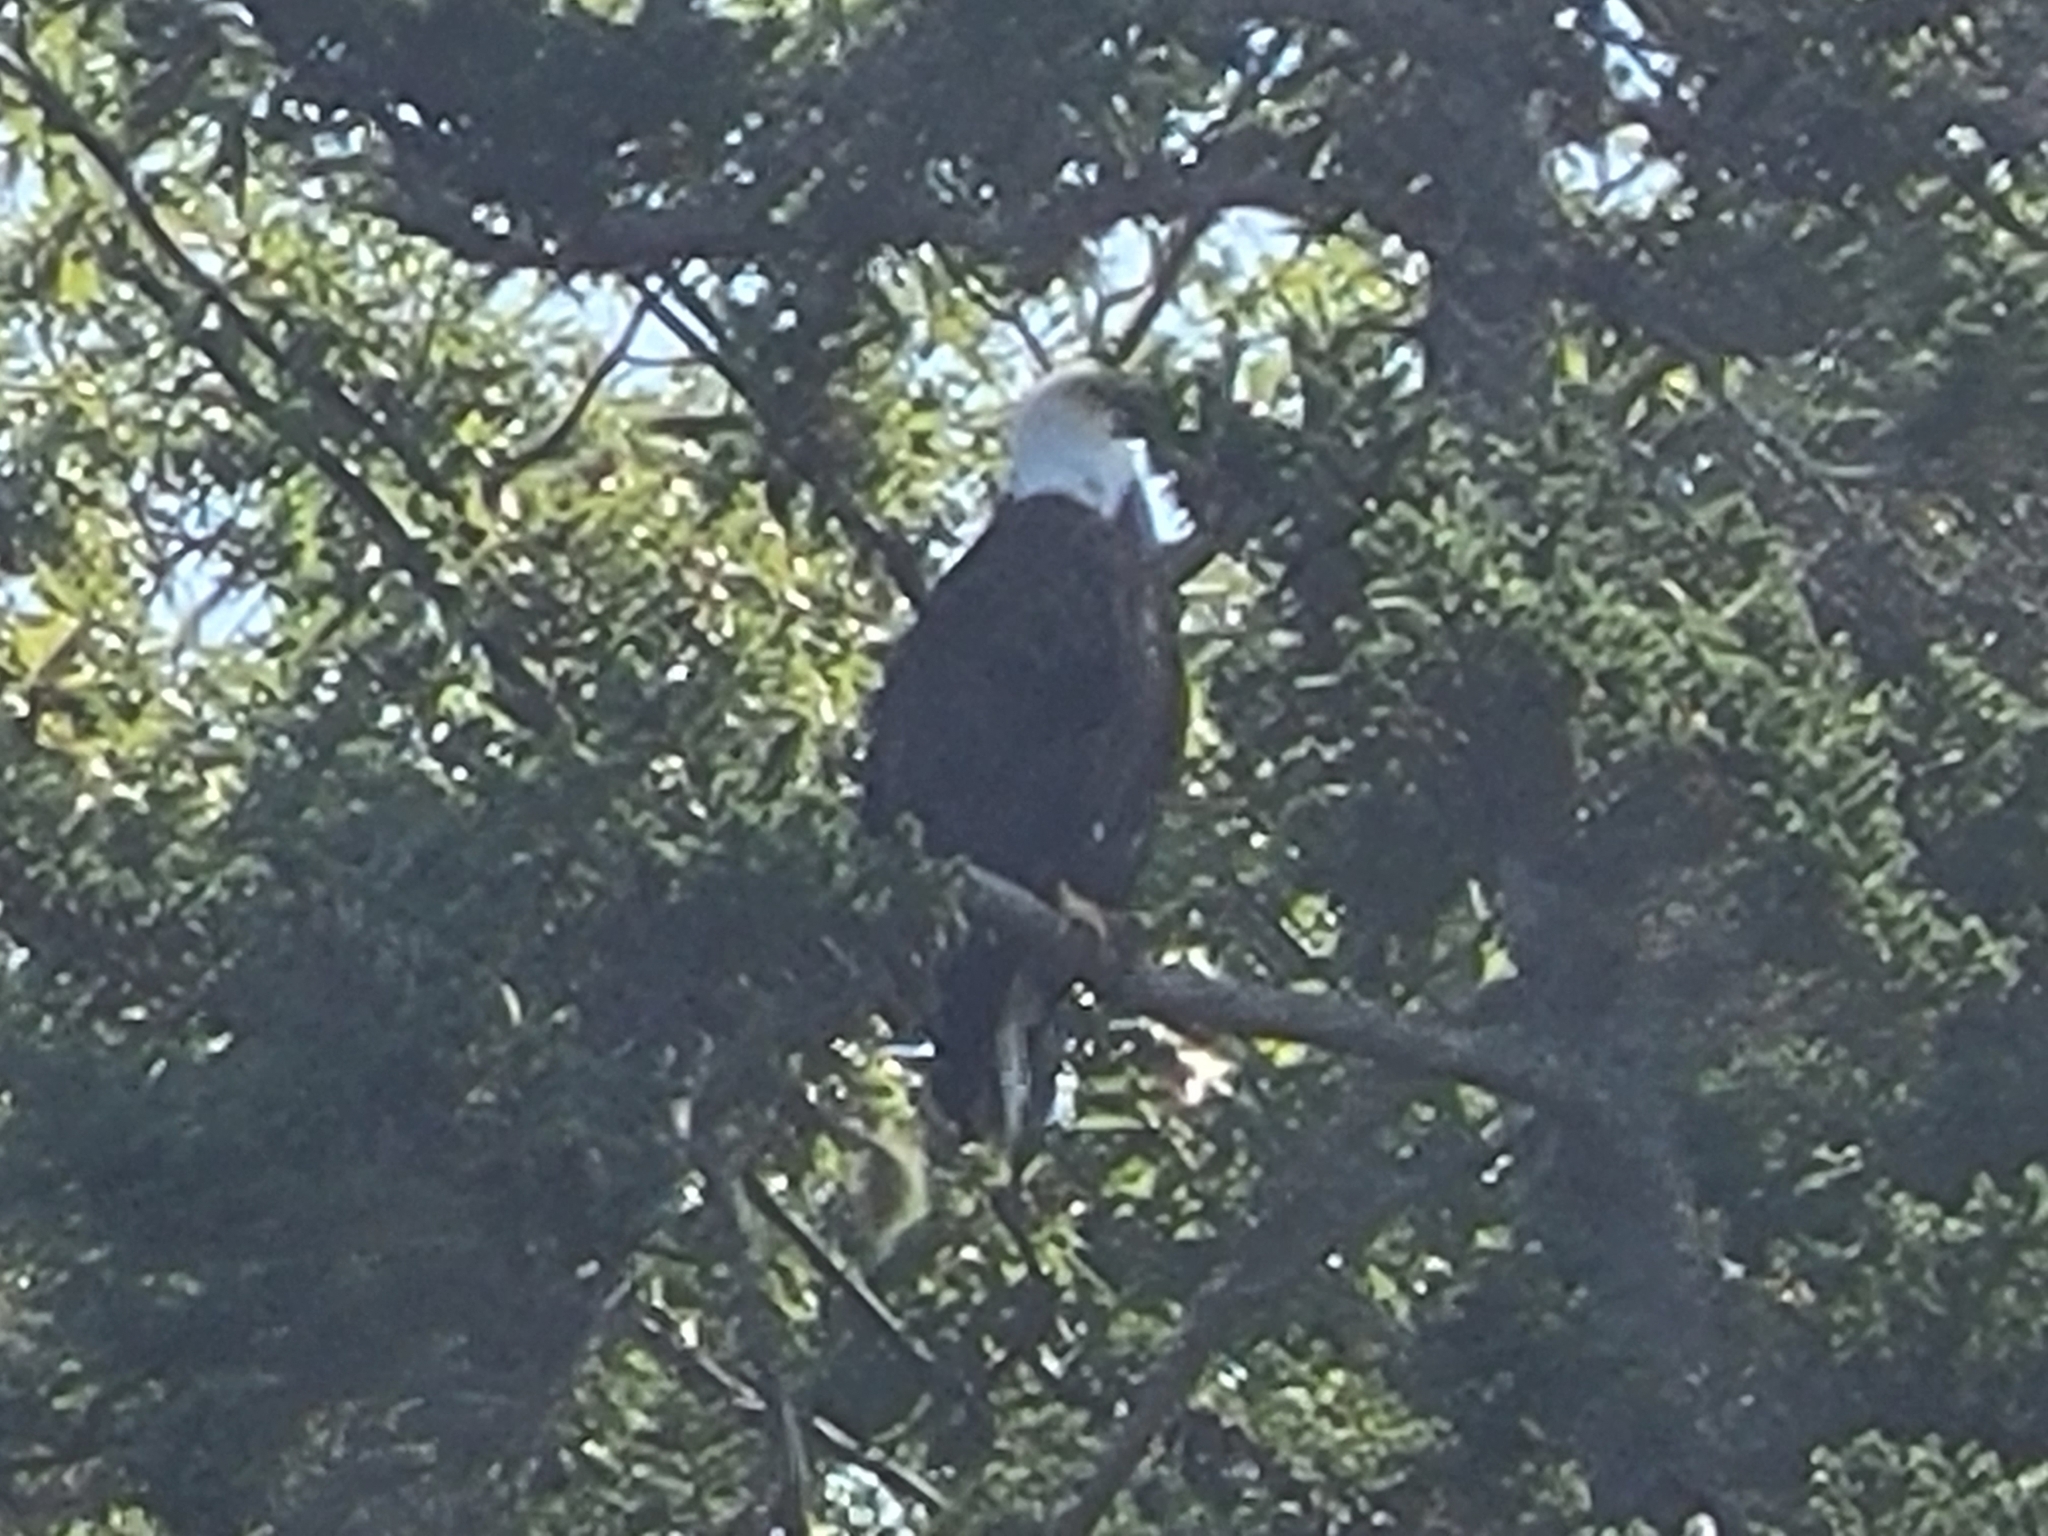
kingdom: Animalia
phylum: Chordata
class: Aves
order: Accipitriformes
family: Accipitridae
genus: Haliaeetus
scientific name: Haliaeetus leucocephalus
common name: Bald eagle
